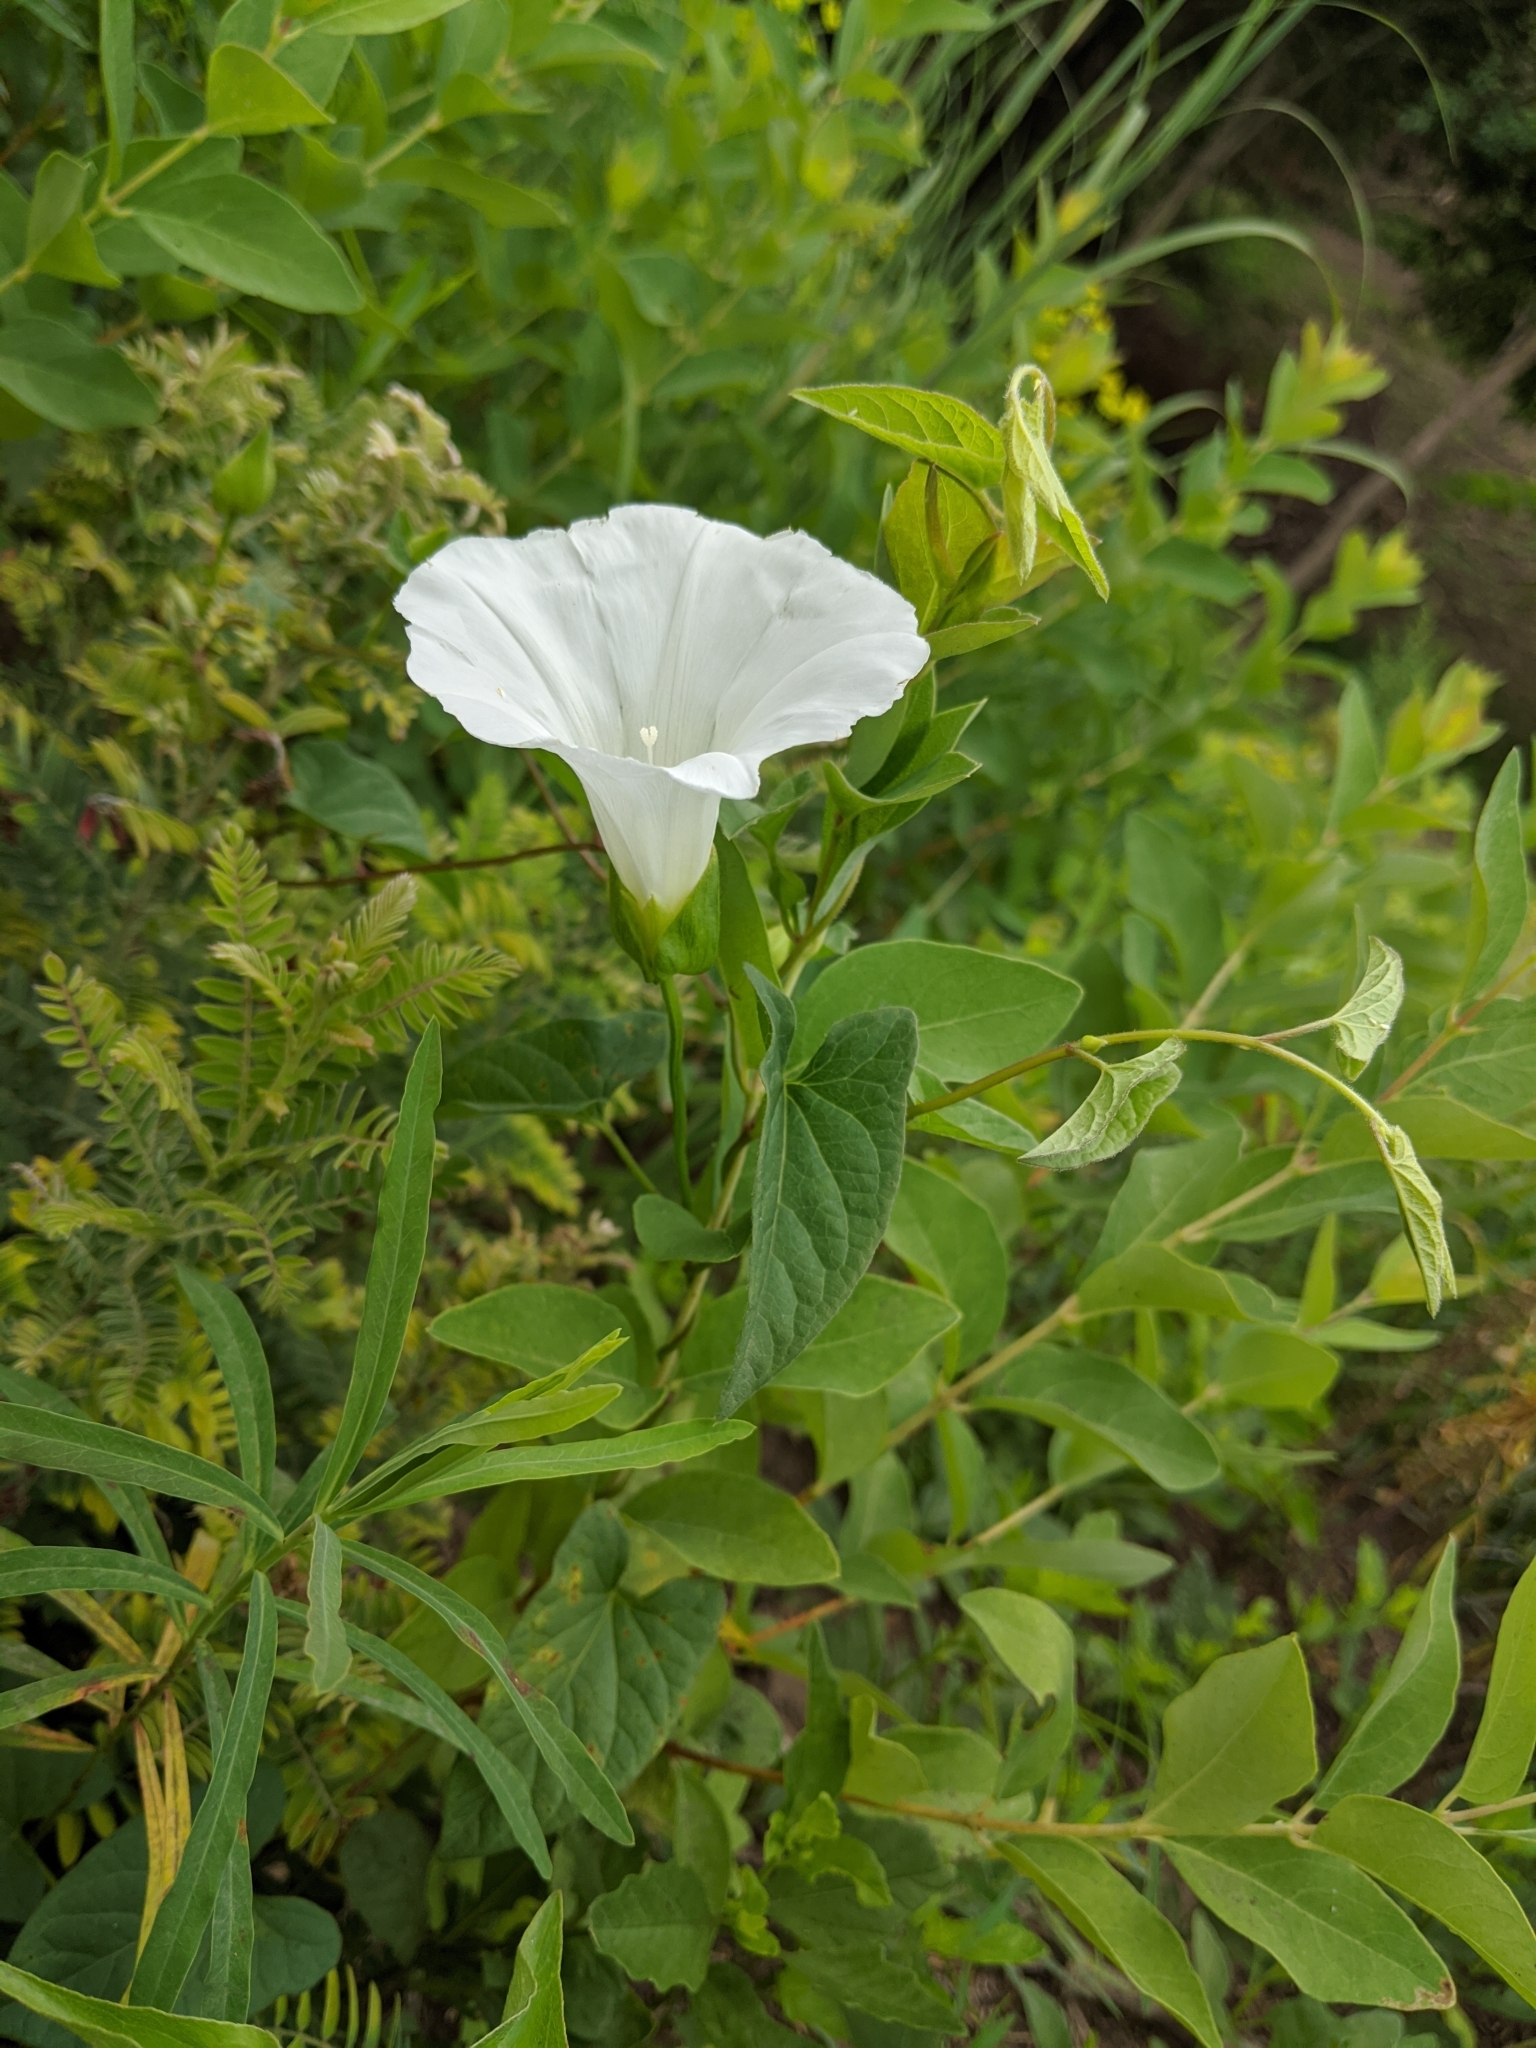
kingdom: Plantae
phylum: Tracheophyta
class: Magnoliopsida
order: Solanales
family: Convolvulaceae
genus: Calystegia
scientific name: Calystegia sepium
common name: Hedge bindweed
